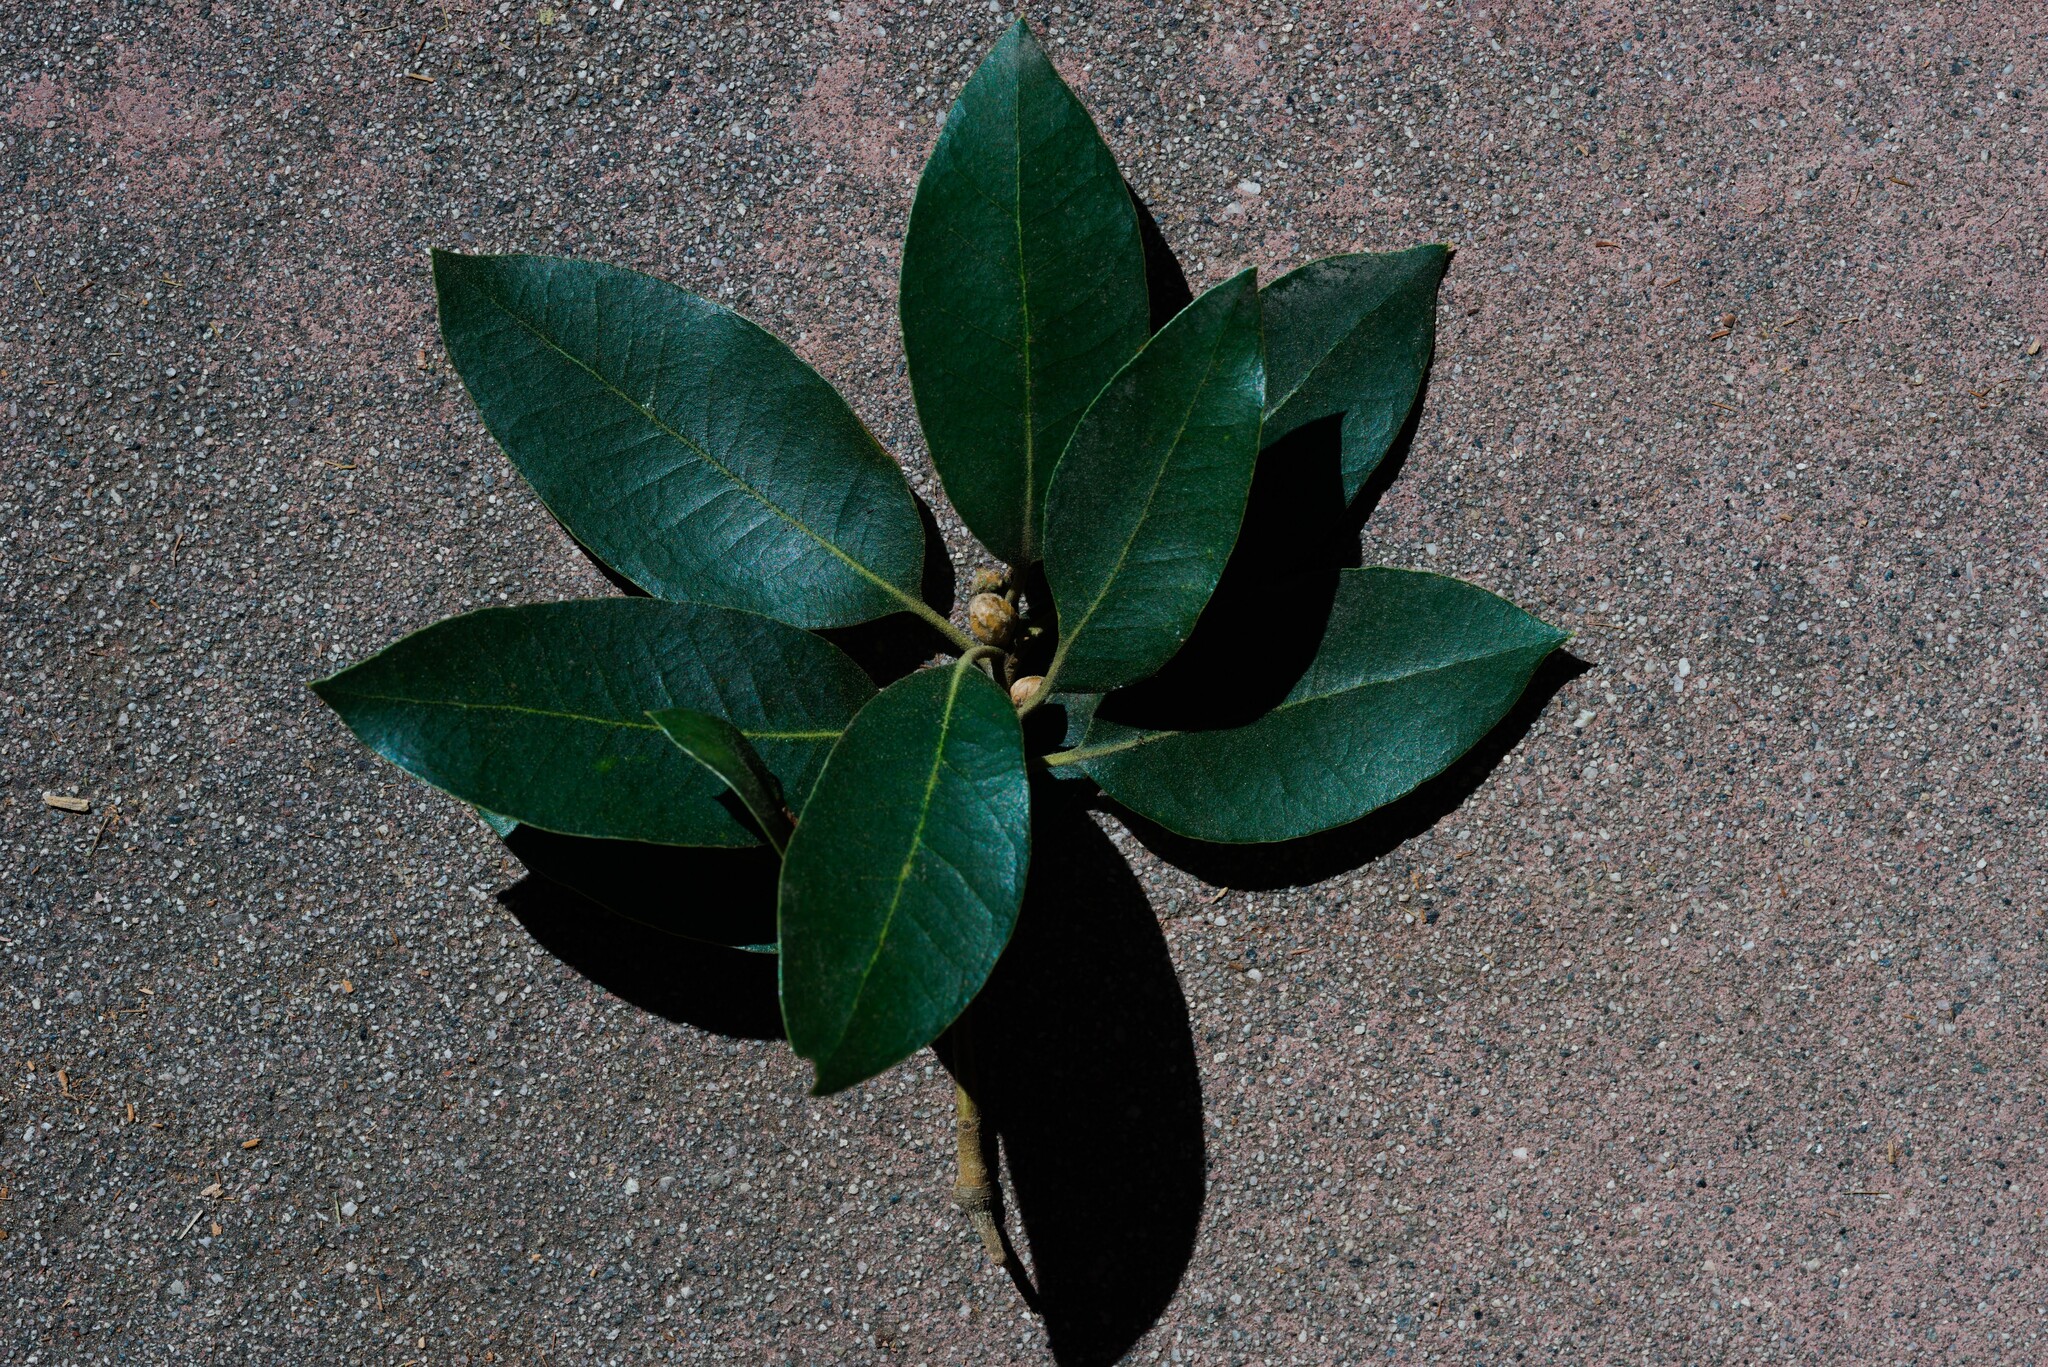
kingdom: Plantae
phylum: Tracheophyta
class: Magnoliopsida
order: Fagales
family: Fagaceae
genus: Quercus
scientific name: Quercus chrysolepis
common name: Canyon live oak
